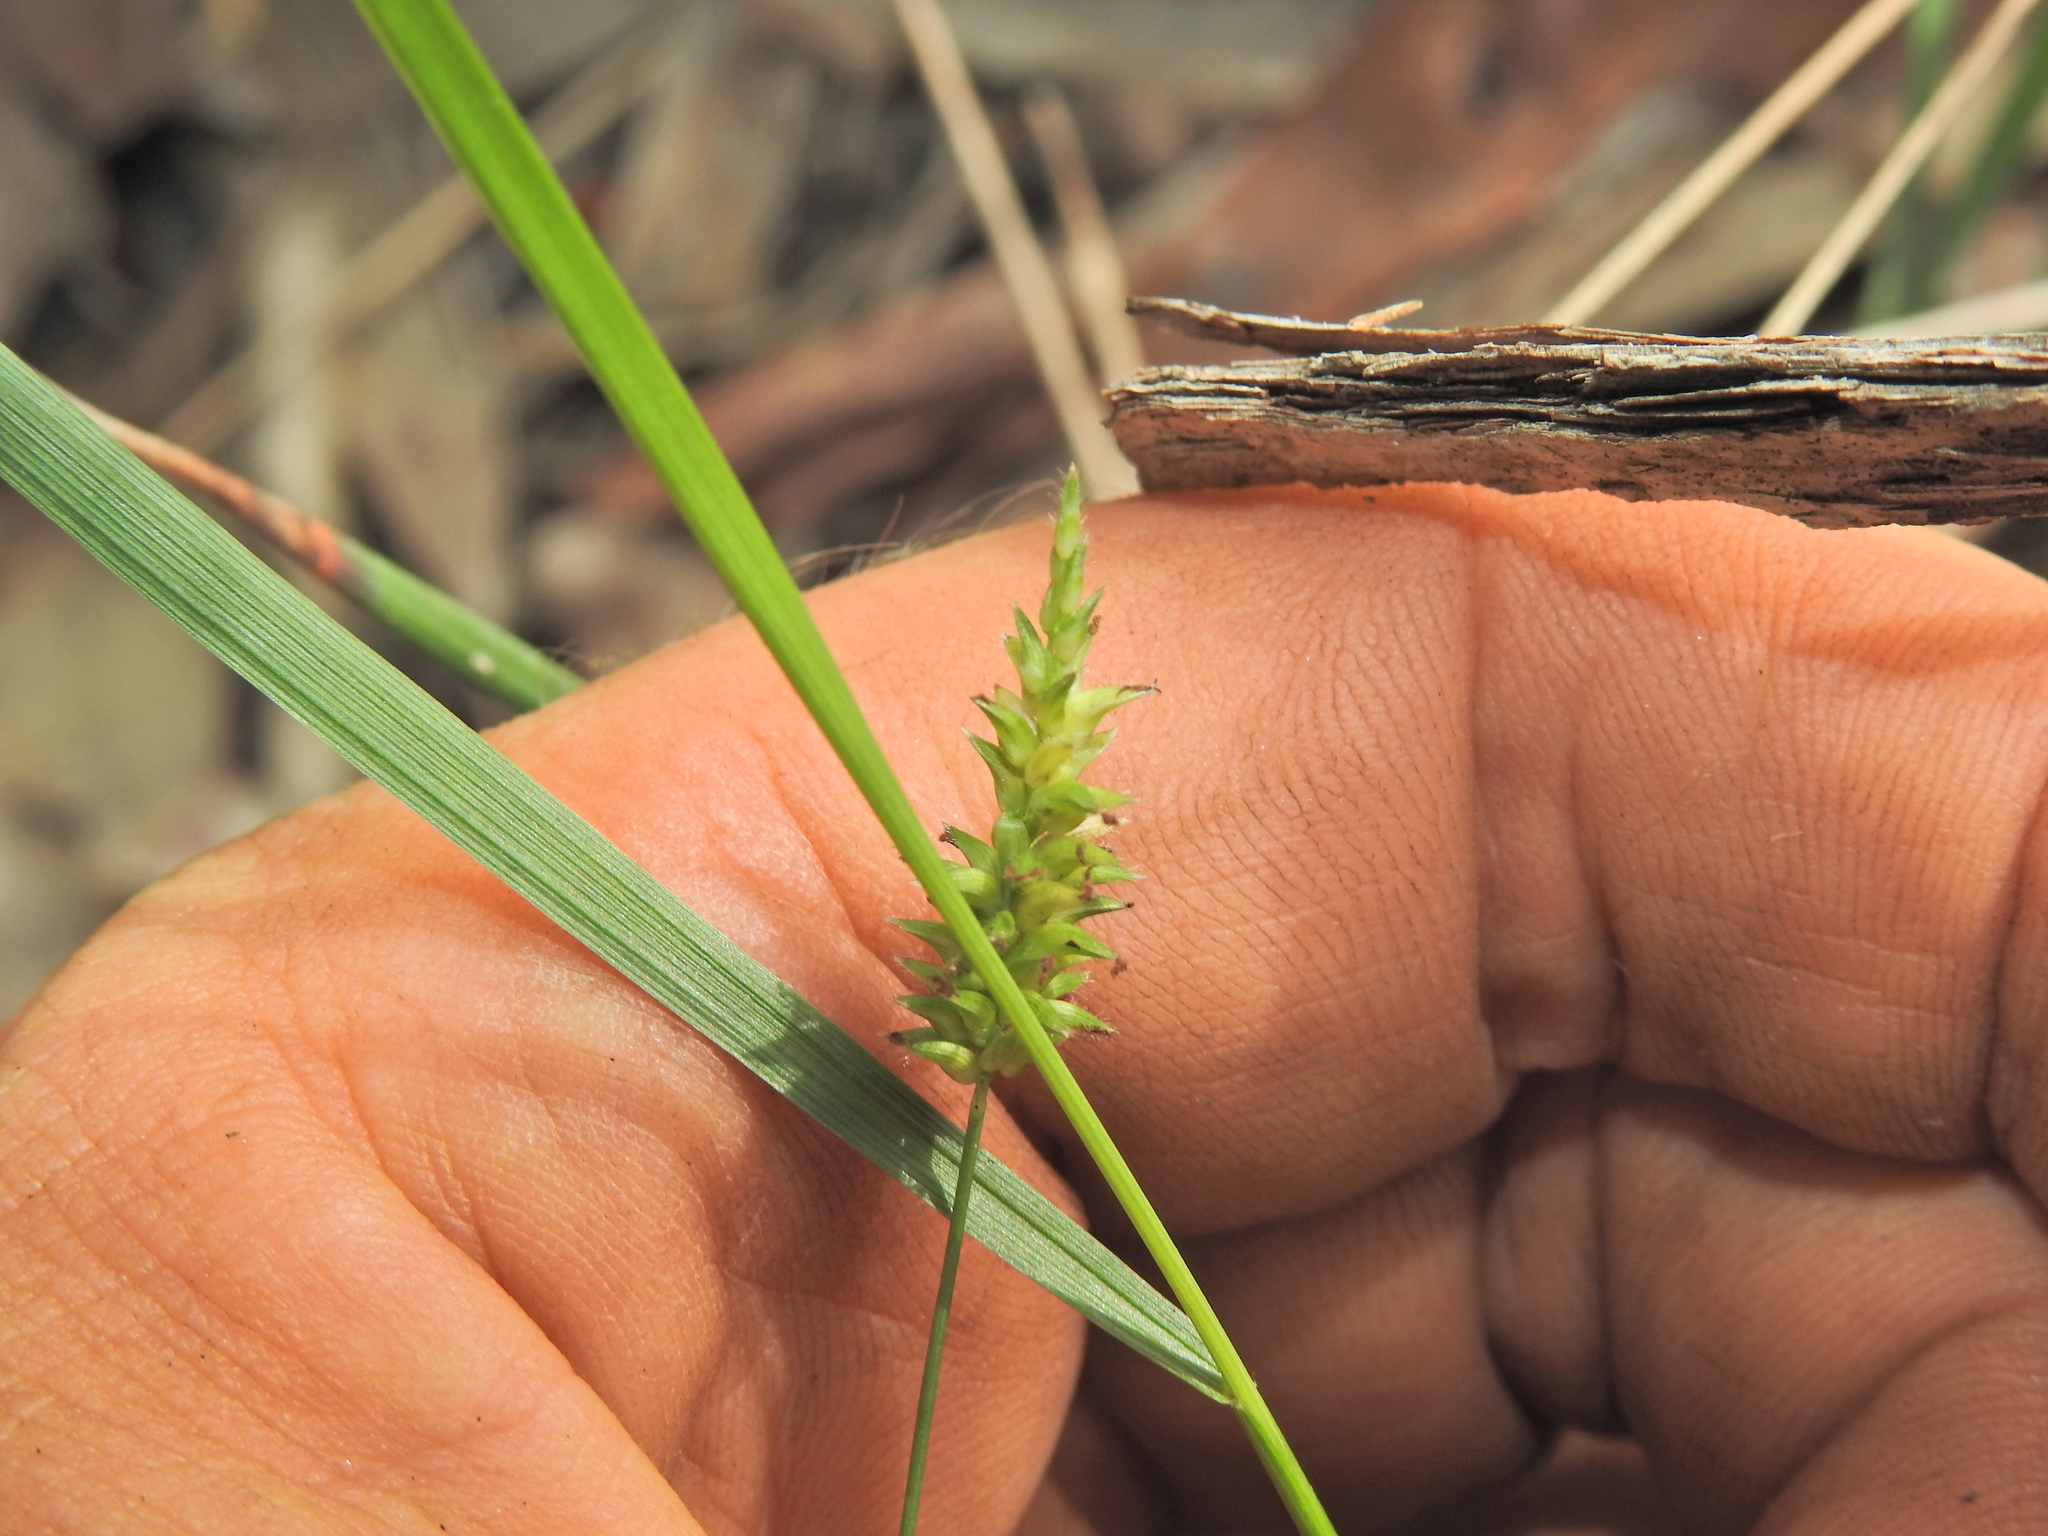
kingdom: Plantae
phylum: Tracheophyta
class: Liliopsida
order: Poales
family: Poaceae
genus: Sacciolepis
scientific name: Sacciolepis indica
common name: Glenwoodgrass
